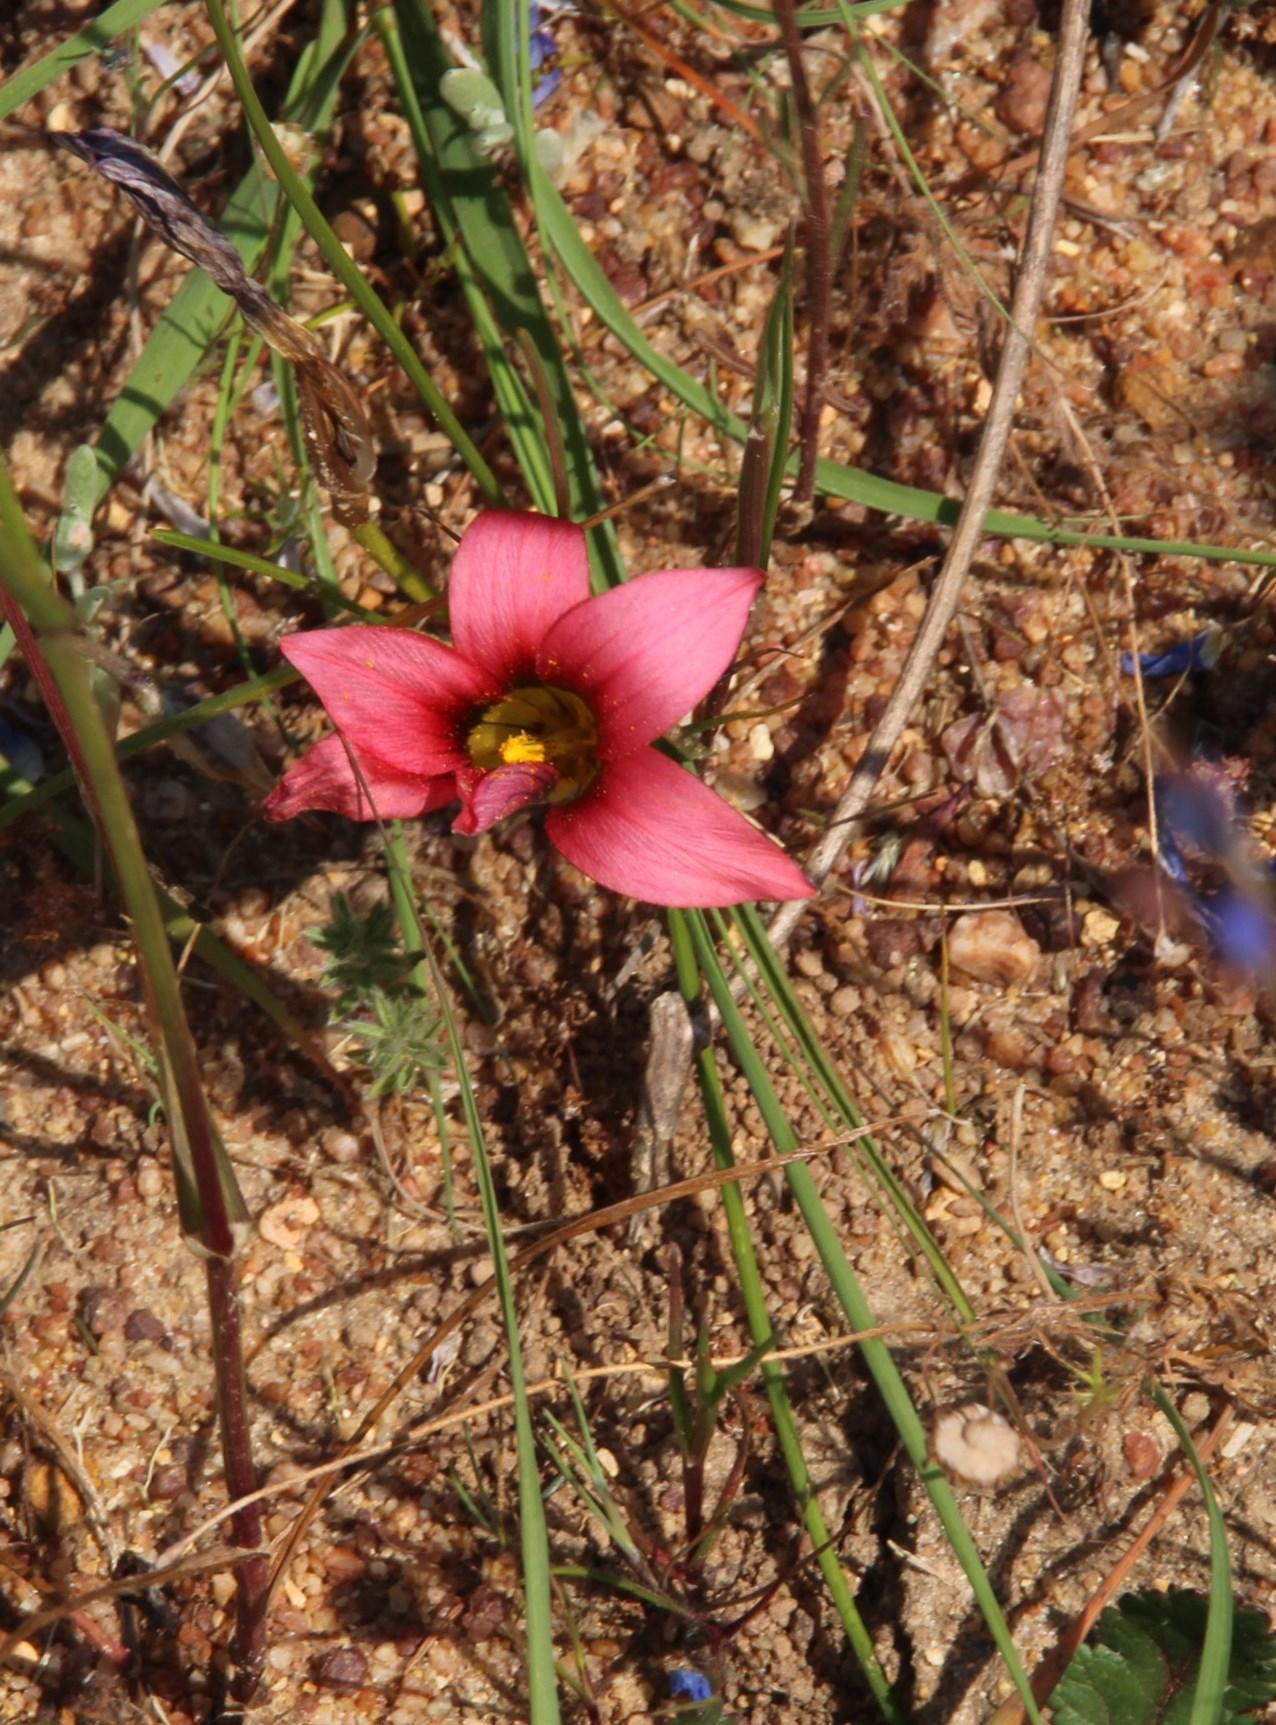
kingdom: Plantae
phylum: Tracheophyta
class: Liliopsida
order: Asparagales
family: Iridaceae
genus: Romulea
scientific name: Romulea eximia
